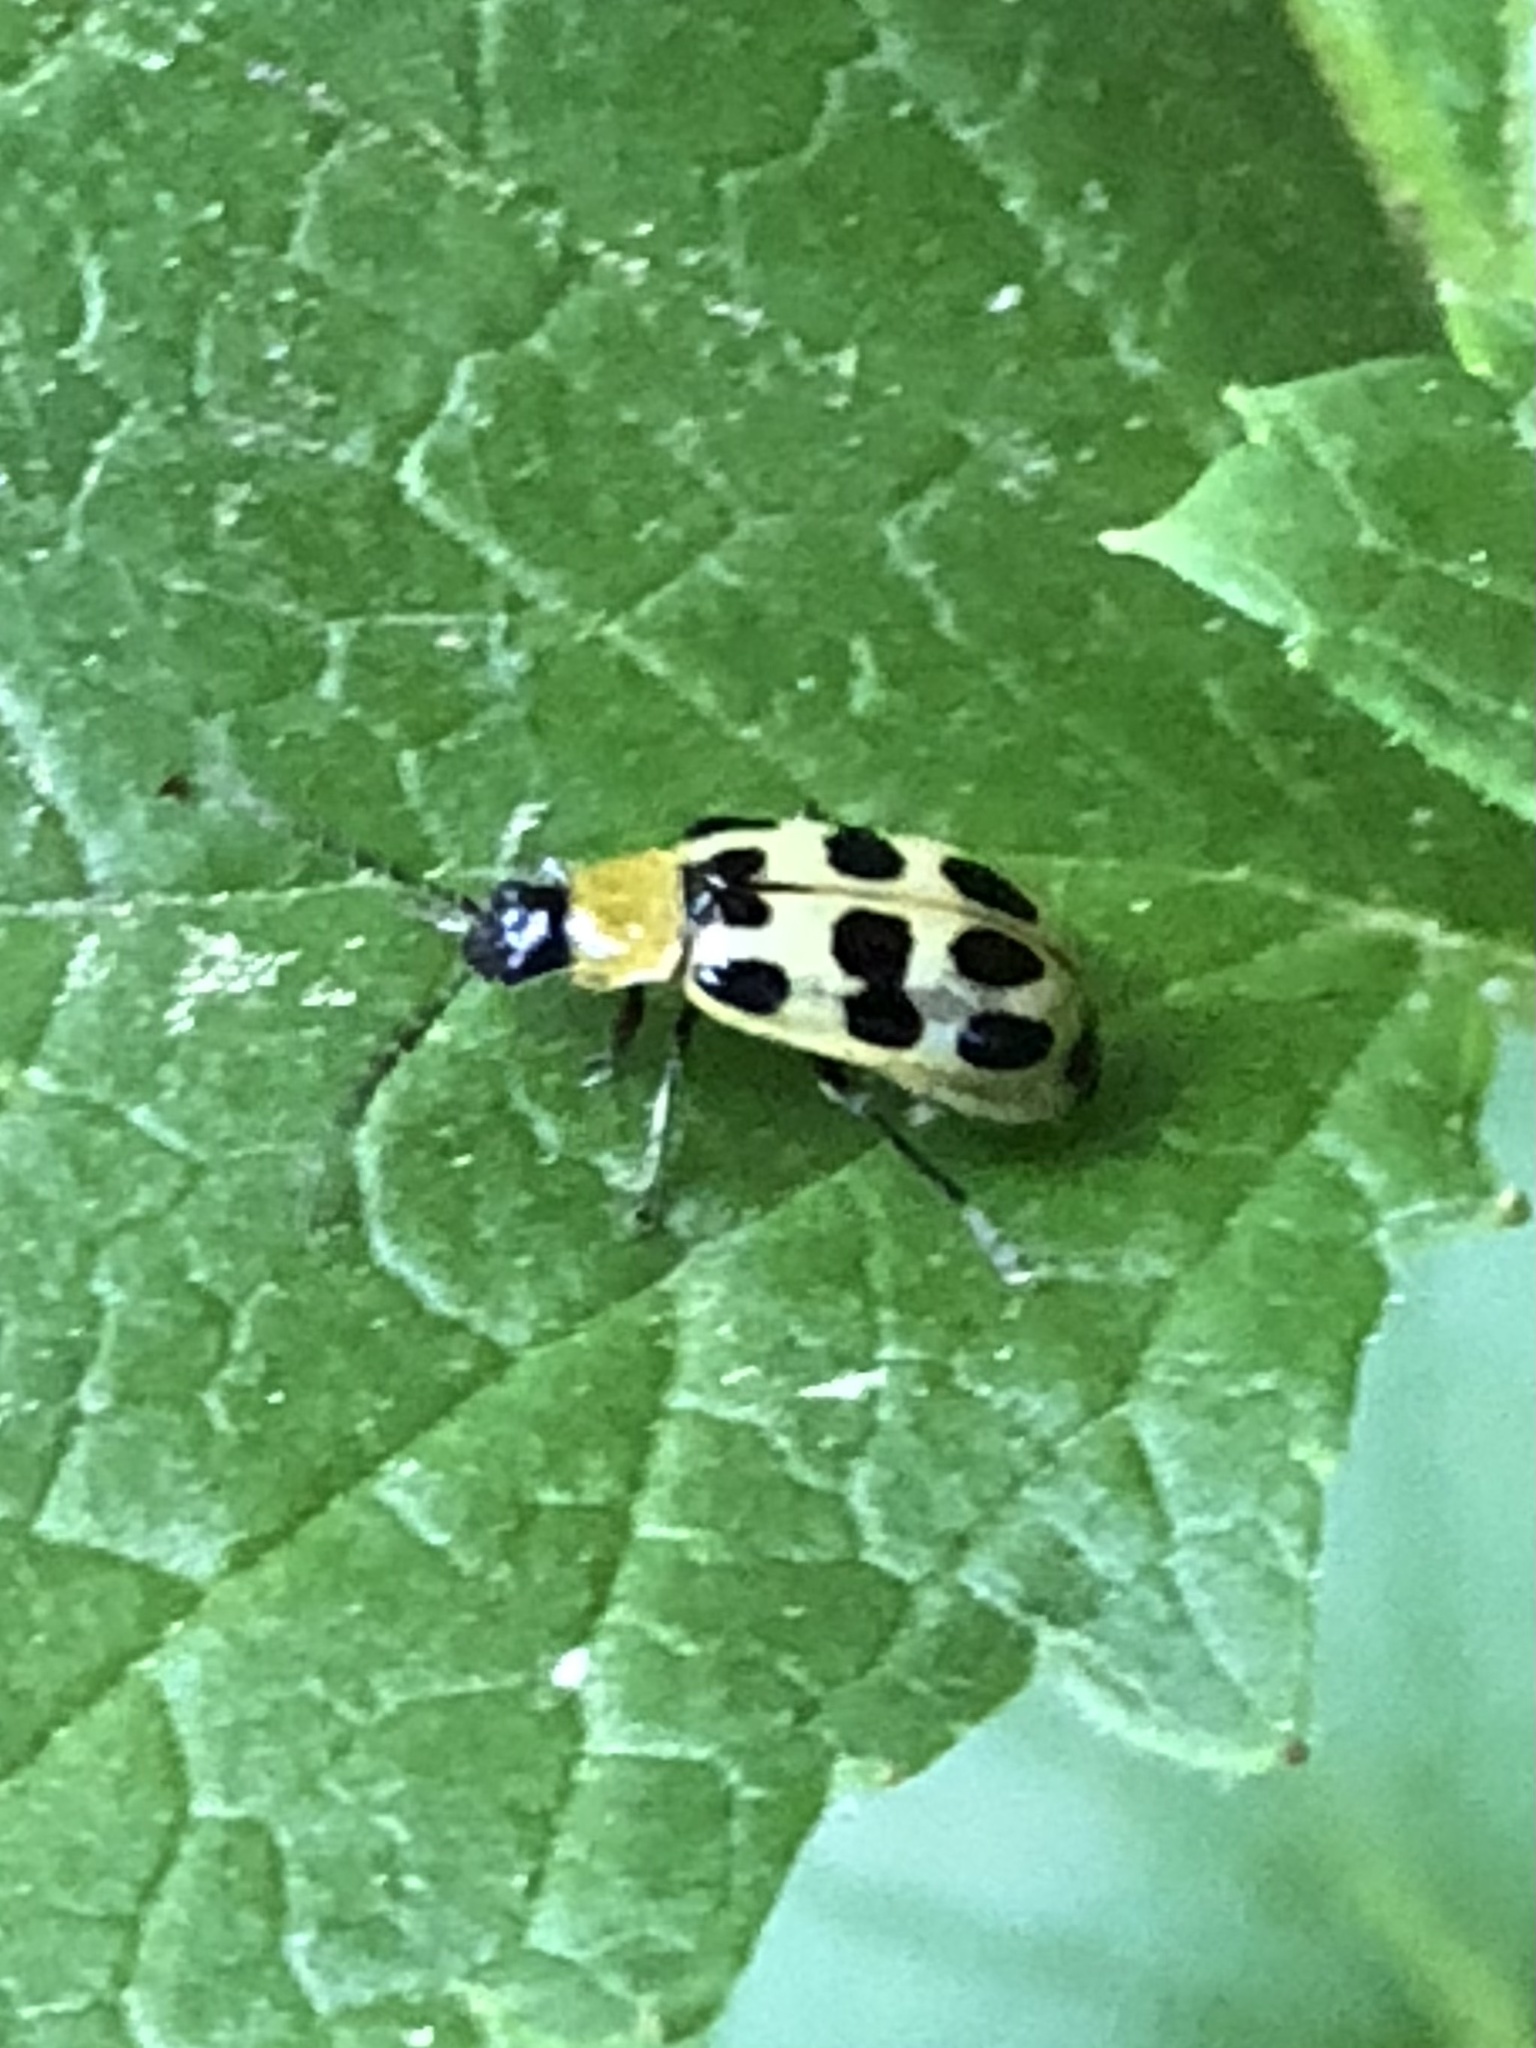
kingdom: Animalia
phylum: Arthropoda
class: Insecta
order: Coleoptera
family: Chrysomelidae
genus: Diabrotica
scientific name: Diabrotica undecimpunctata
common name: Spotted cucumber beetle
